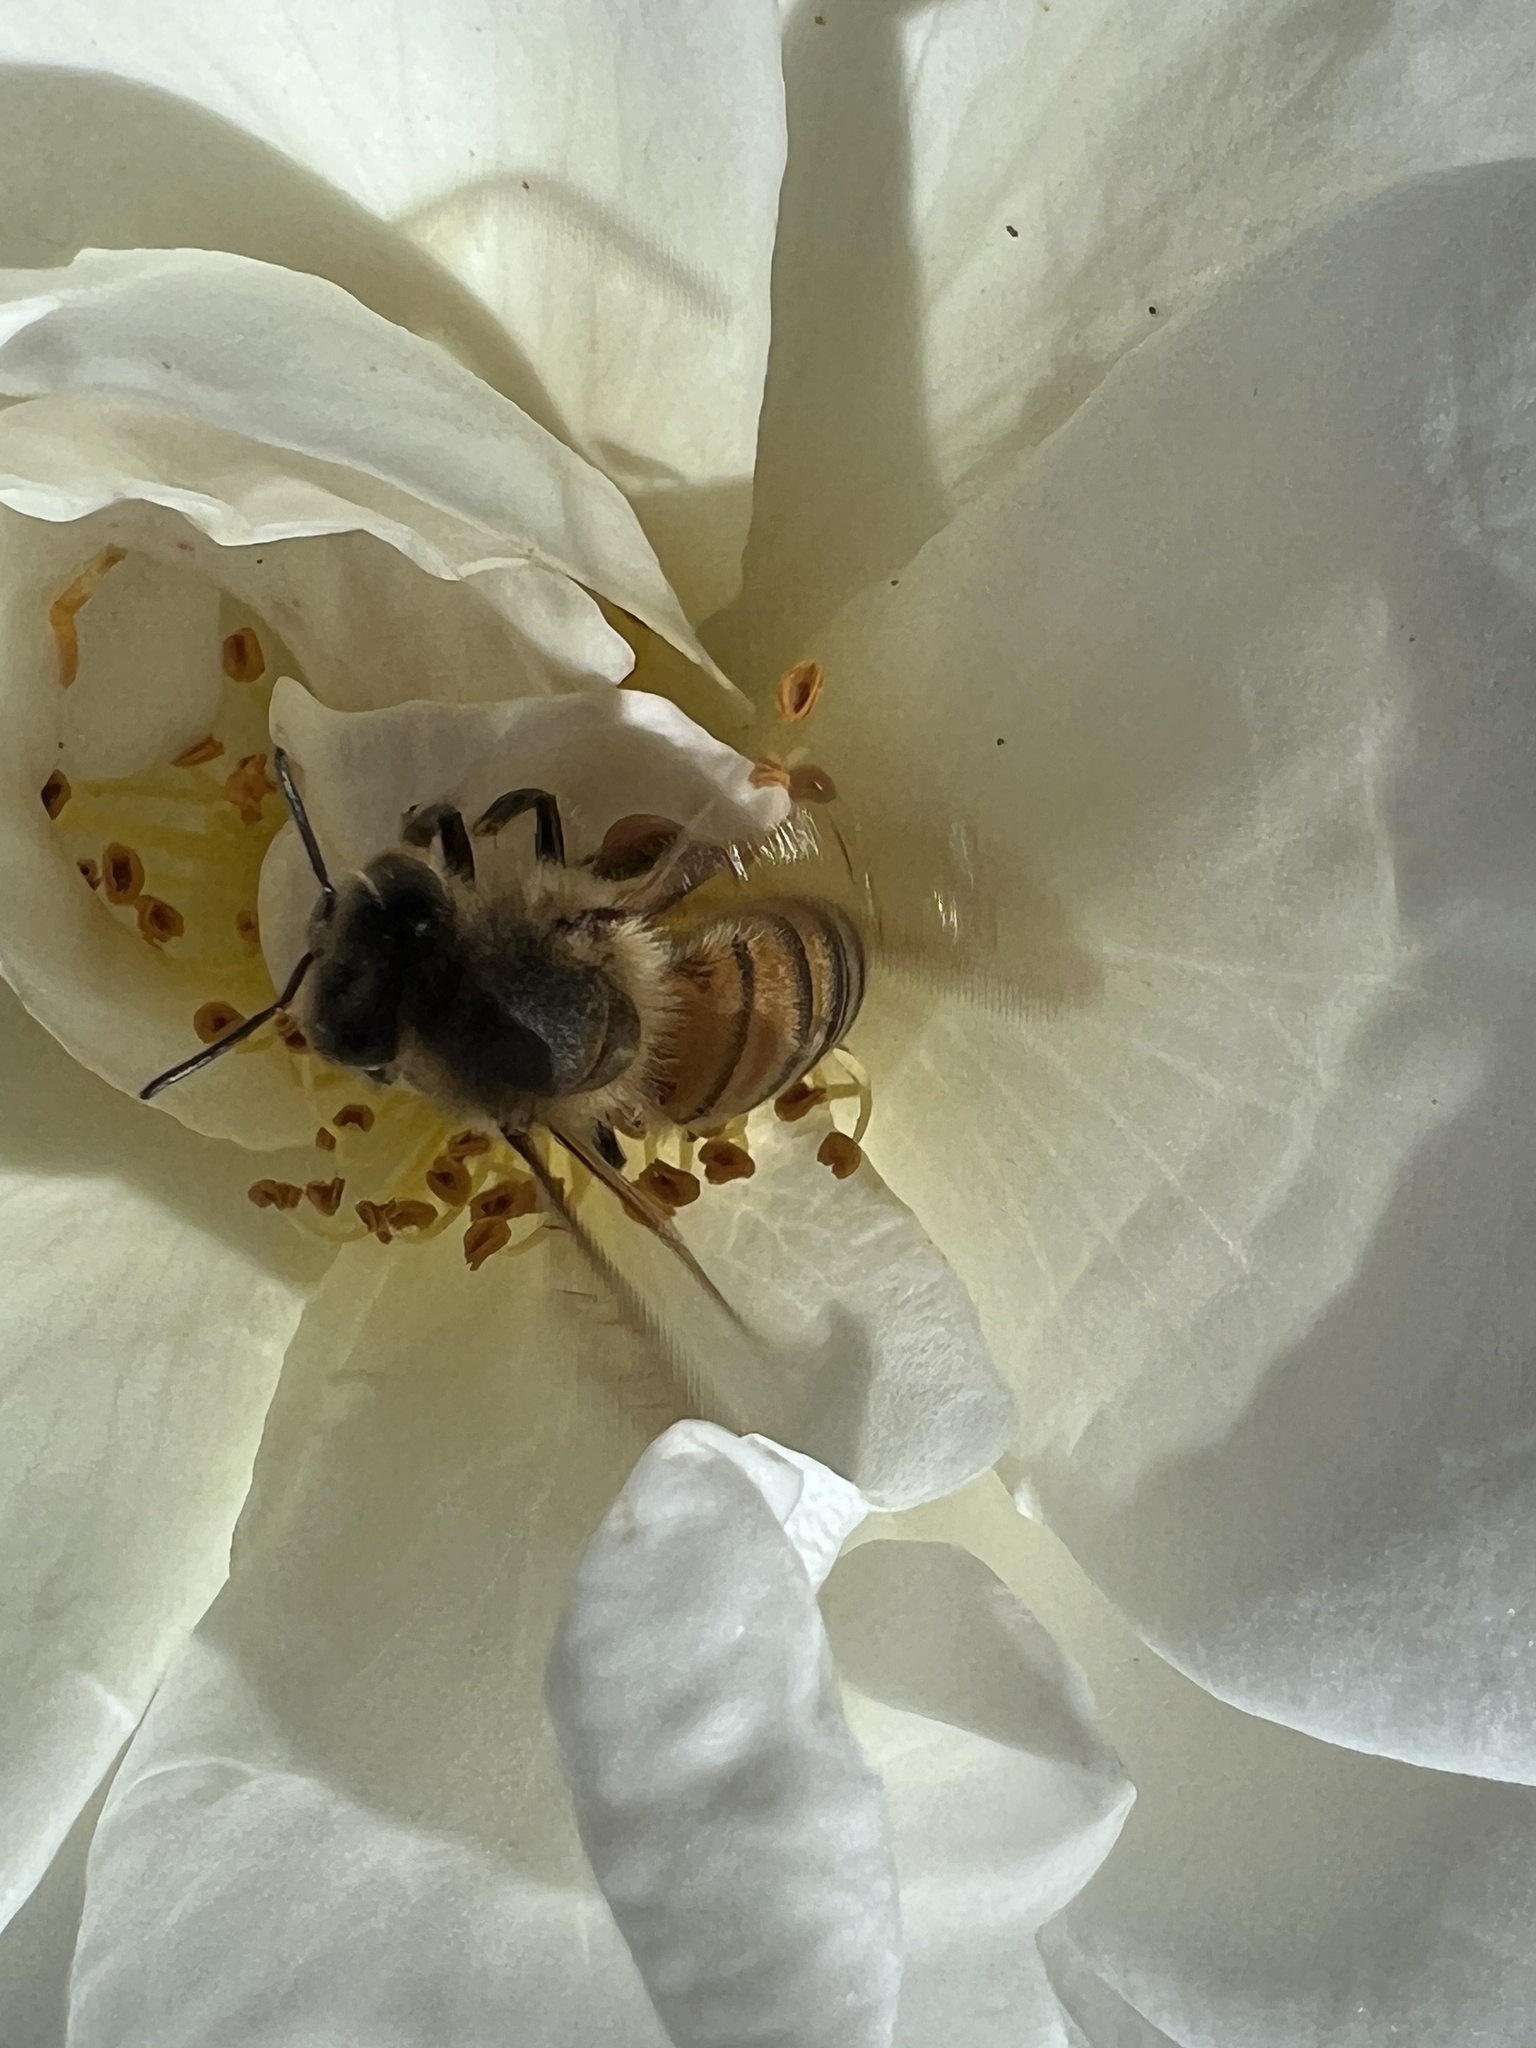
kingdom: Animalia
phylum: Arthropoda
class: Insecta
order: Hymenoptera
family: Apidae
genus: Apis
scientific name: Apis mellifera
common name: Honey bee
